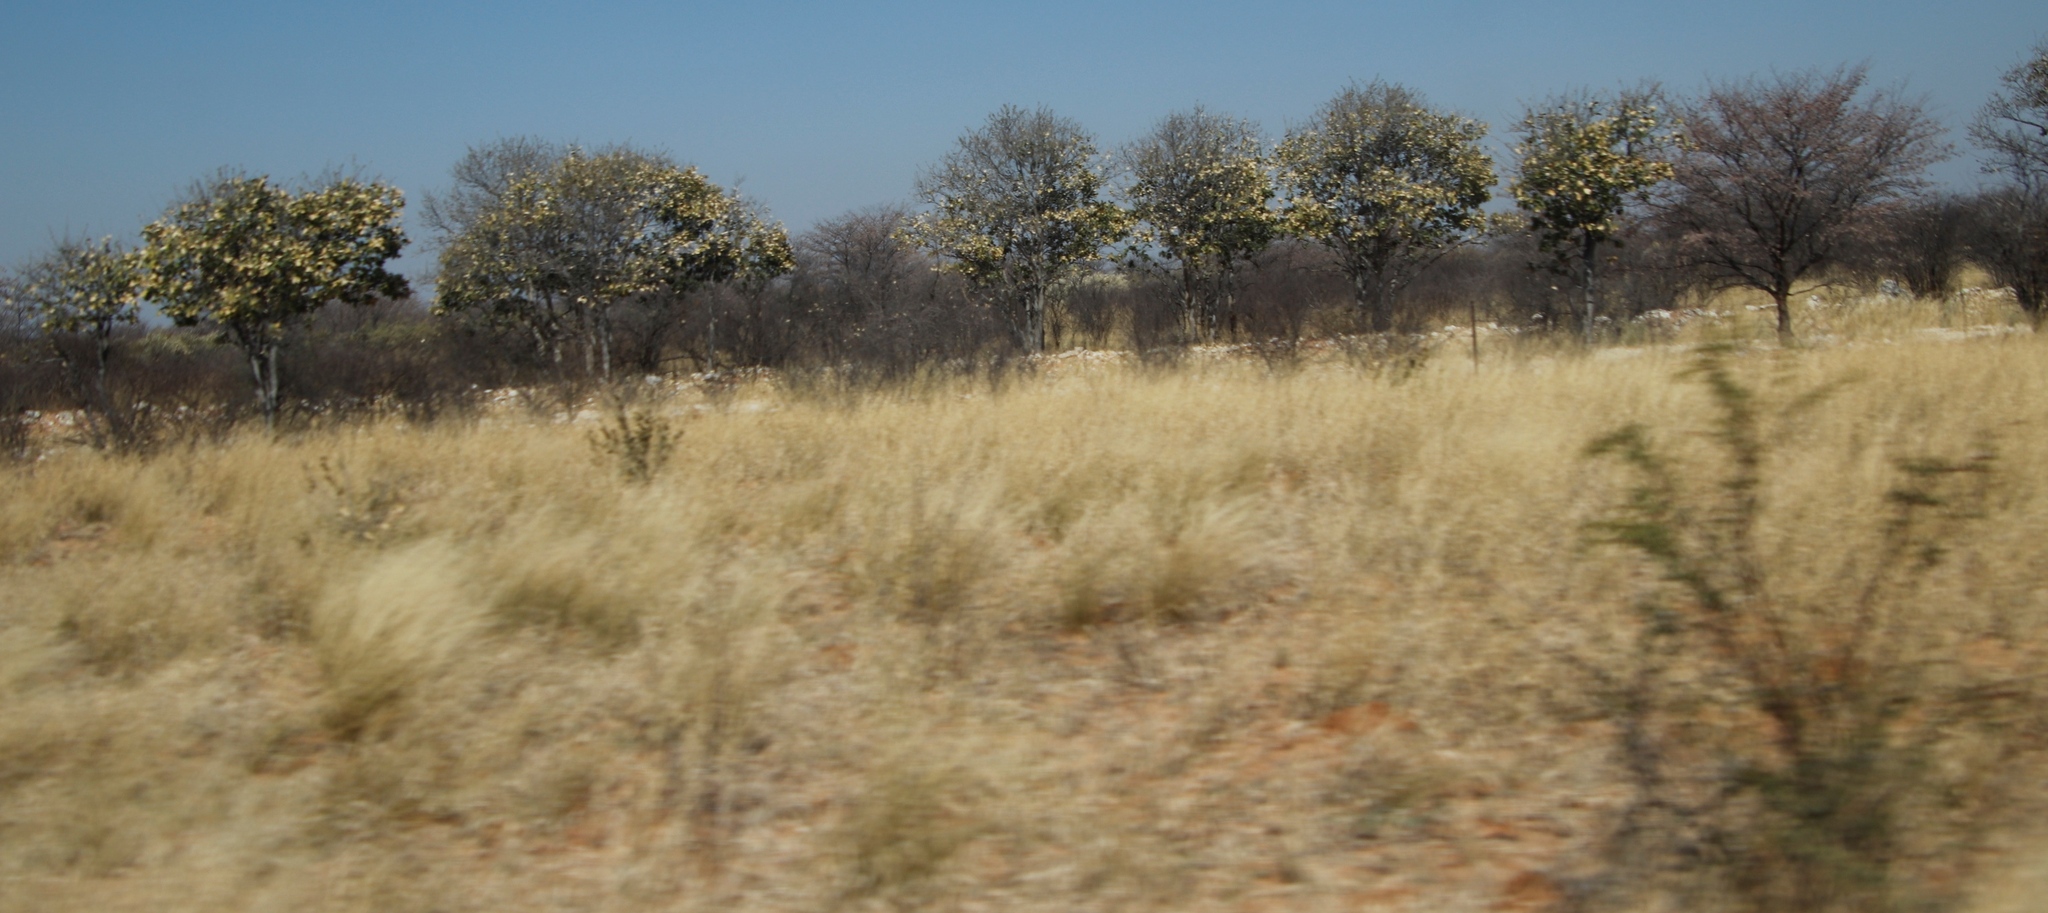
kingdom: Plantae
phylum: Tracheophyta
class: Magnoliopsida
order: Fabales
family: Fabaceae
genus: Senegalia
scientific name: Senegalia mellifera
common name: Hookthorn
